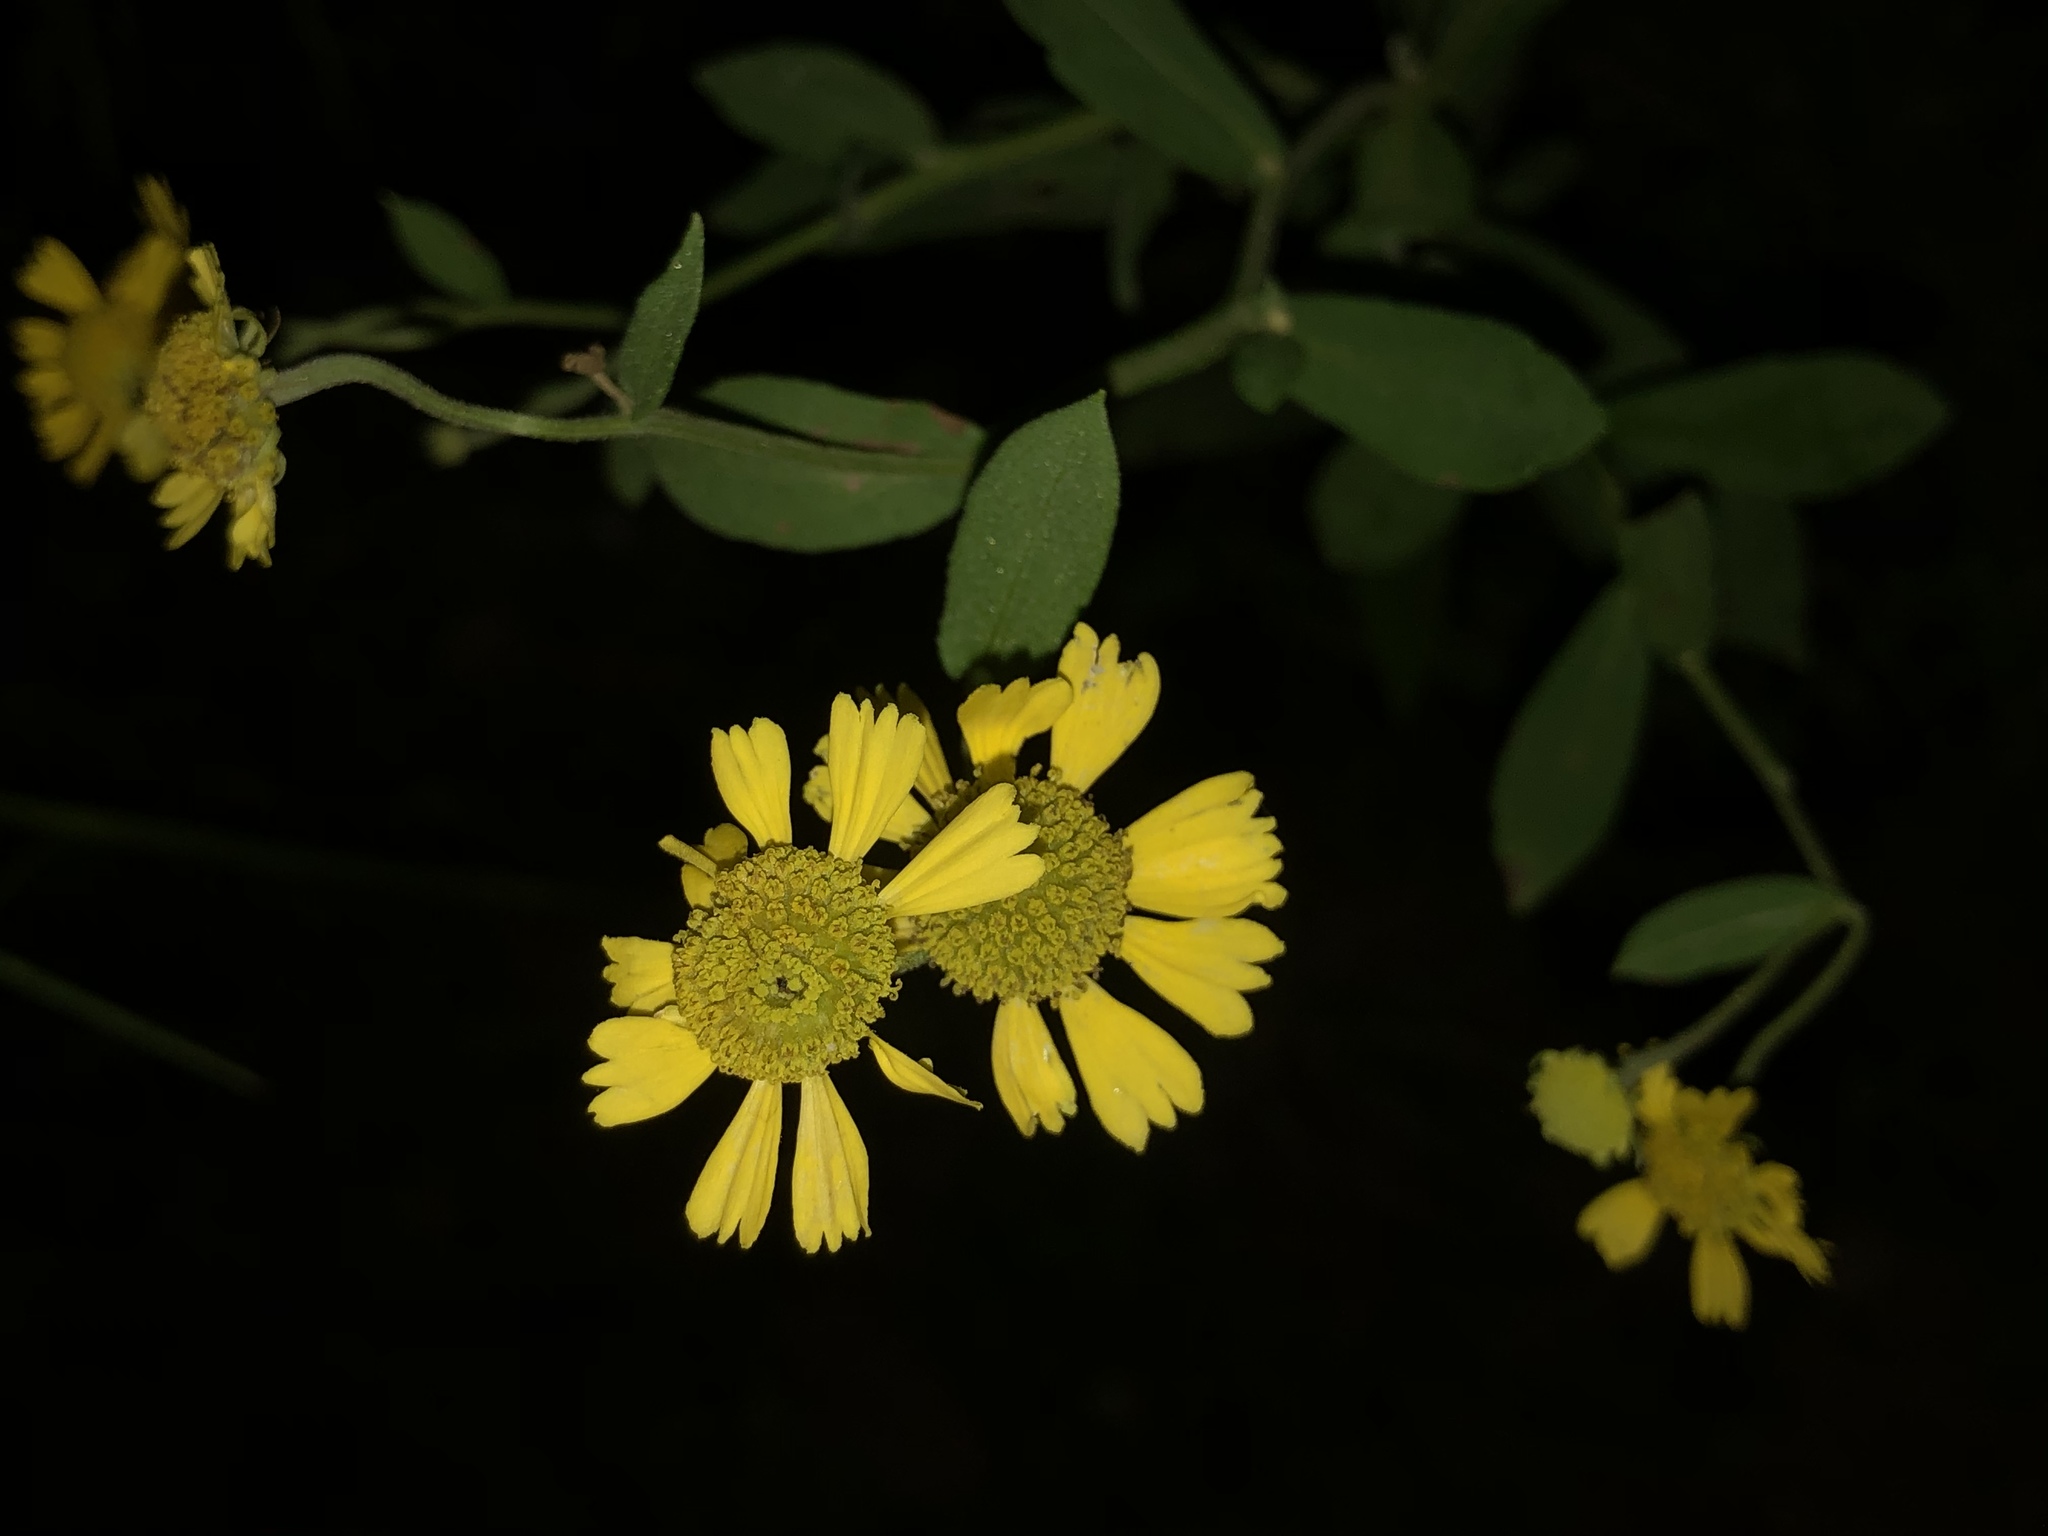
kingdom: Plantae
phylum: Tracheophyta
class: Magnoliopsida
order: Asterales
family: Asteraceae
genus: Helenium
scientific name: Helenium autumnale
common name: Sneezeweed
